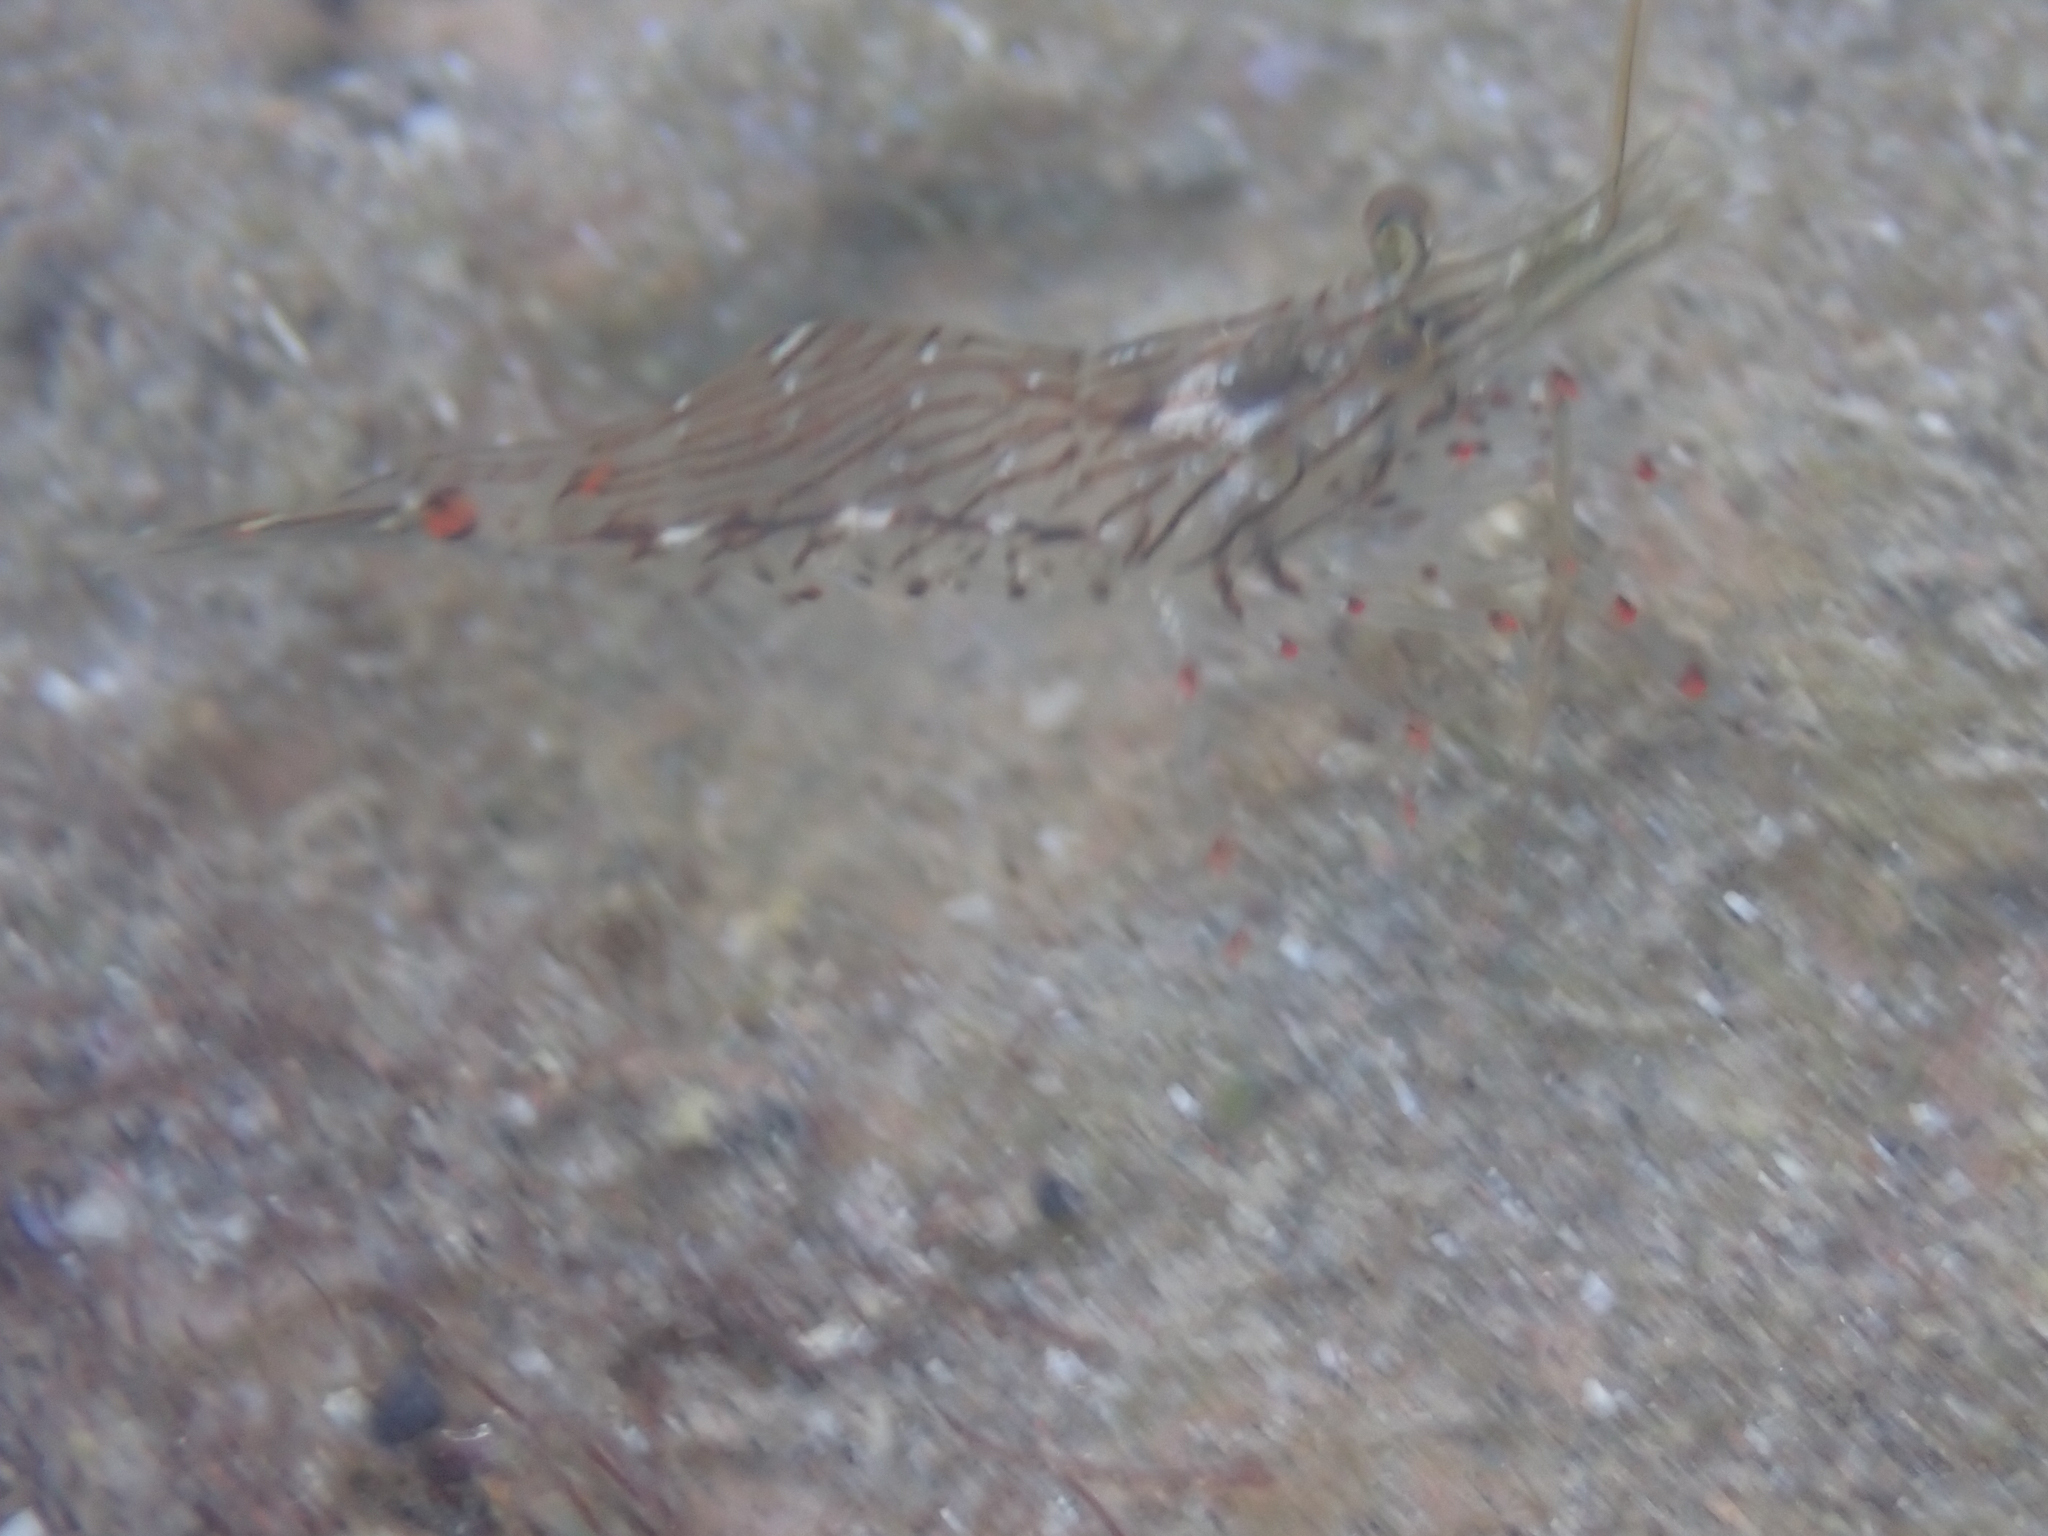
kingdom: Animalia
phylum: Arthropoda
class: Malacostraca
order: Decapoda
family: Palaemonidae
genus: Palaemon
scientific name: Palaemon ritteri
